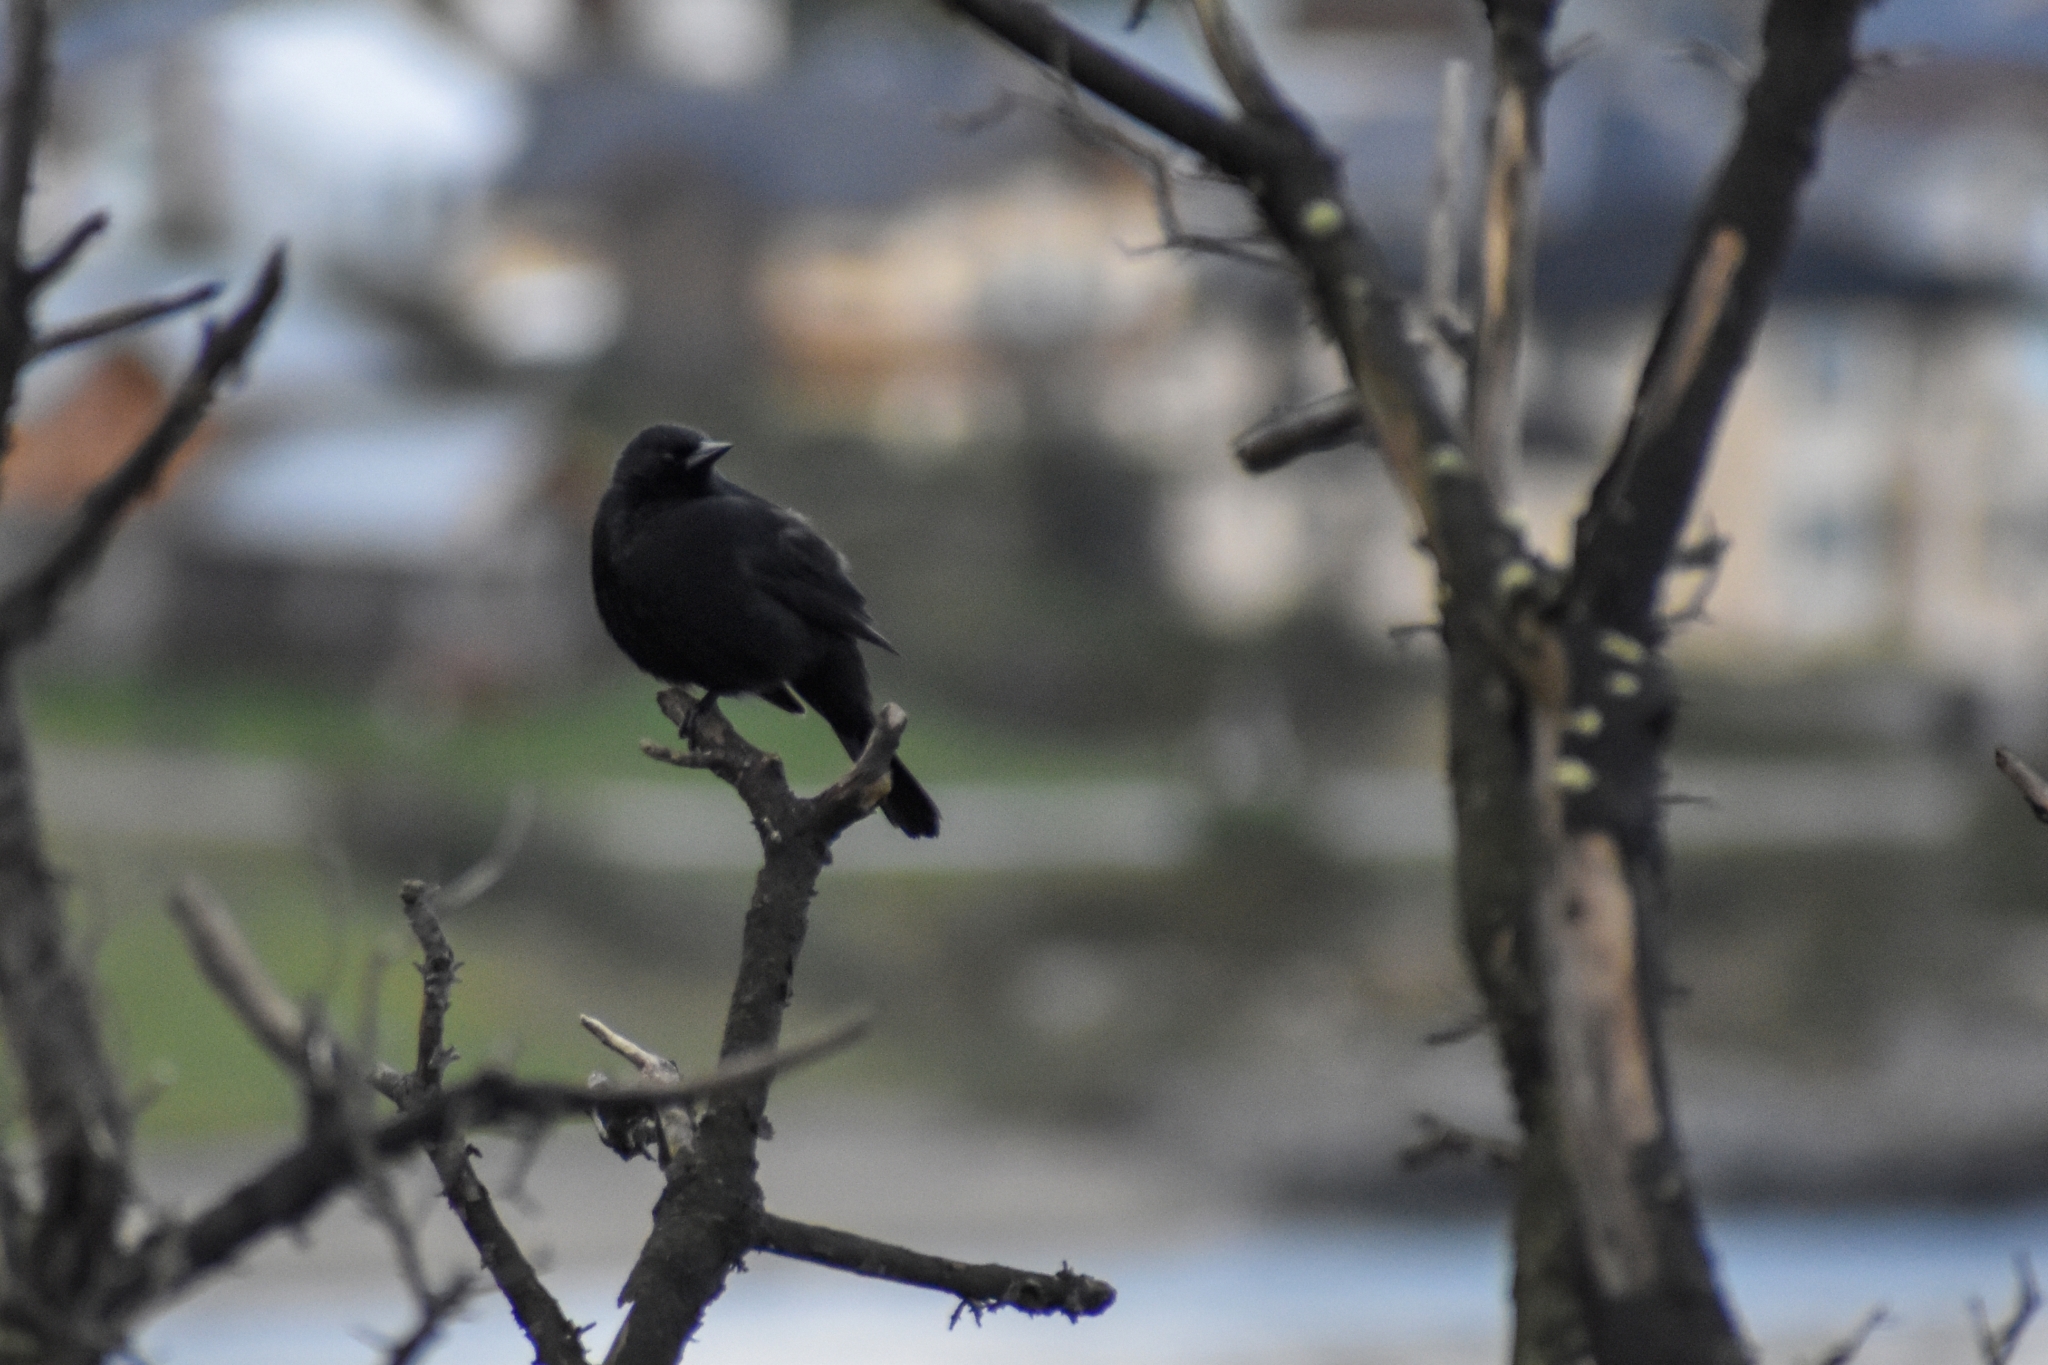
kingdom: Animalia
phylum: Chordata
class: Aves
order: Passeriformes
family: Icteridae
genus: Curaeus
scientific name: Curaeus curaeus
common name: Austral blackbird
